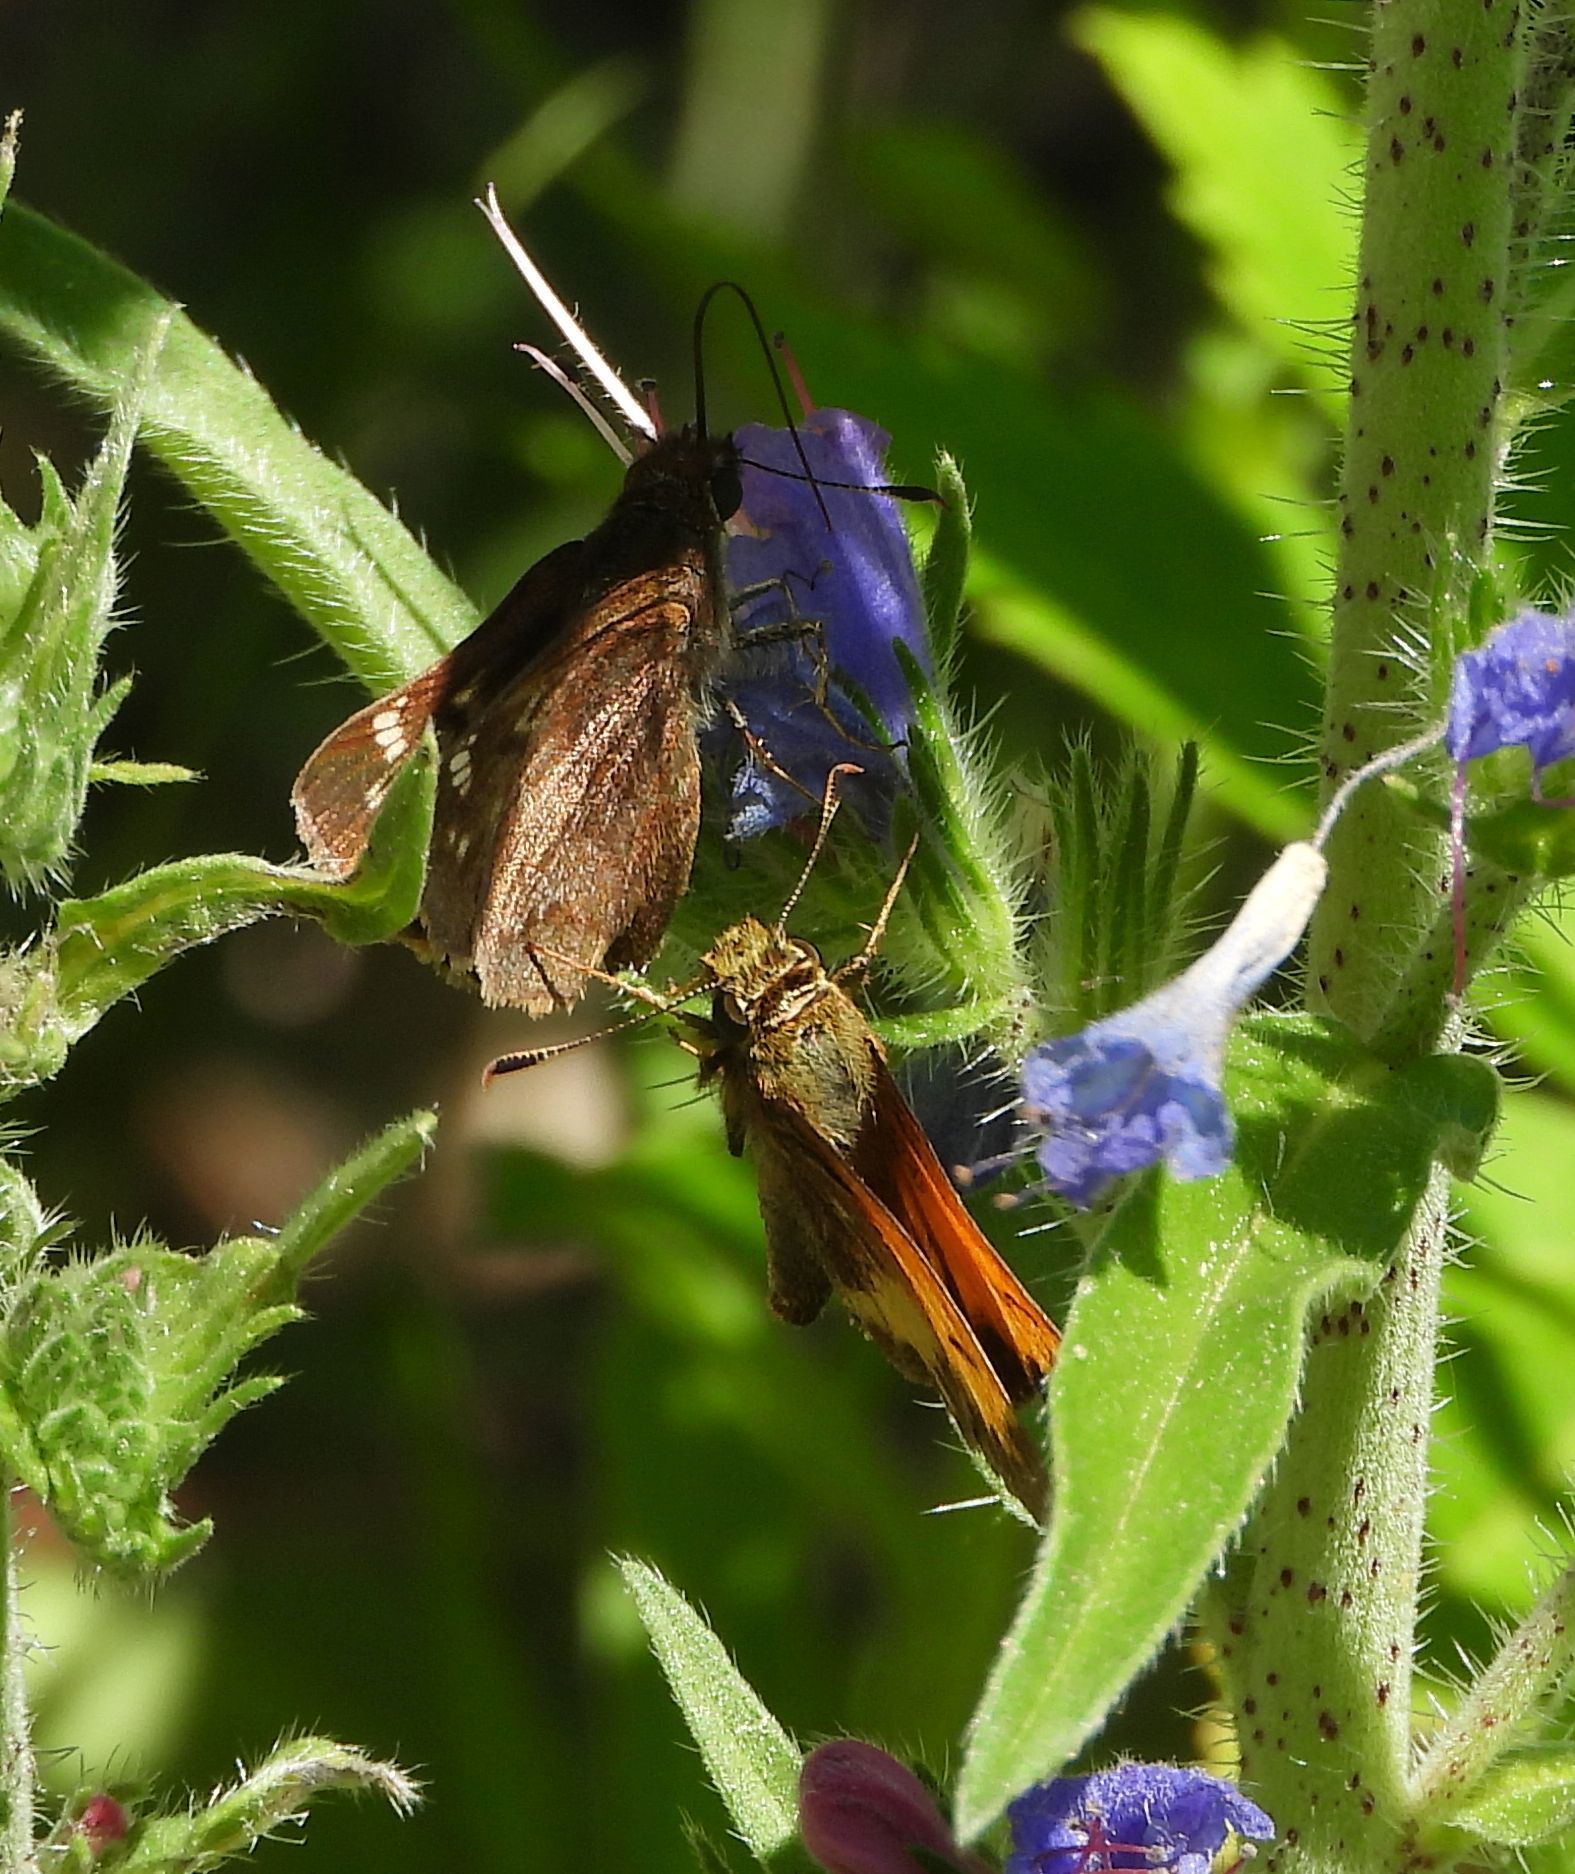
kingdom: Animalia
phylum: Arthropoda
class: Insecta
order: Lepidoptera
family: Hesperiidae
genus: Lon
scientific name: Lon hobomok
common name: Hobomok skipper
